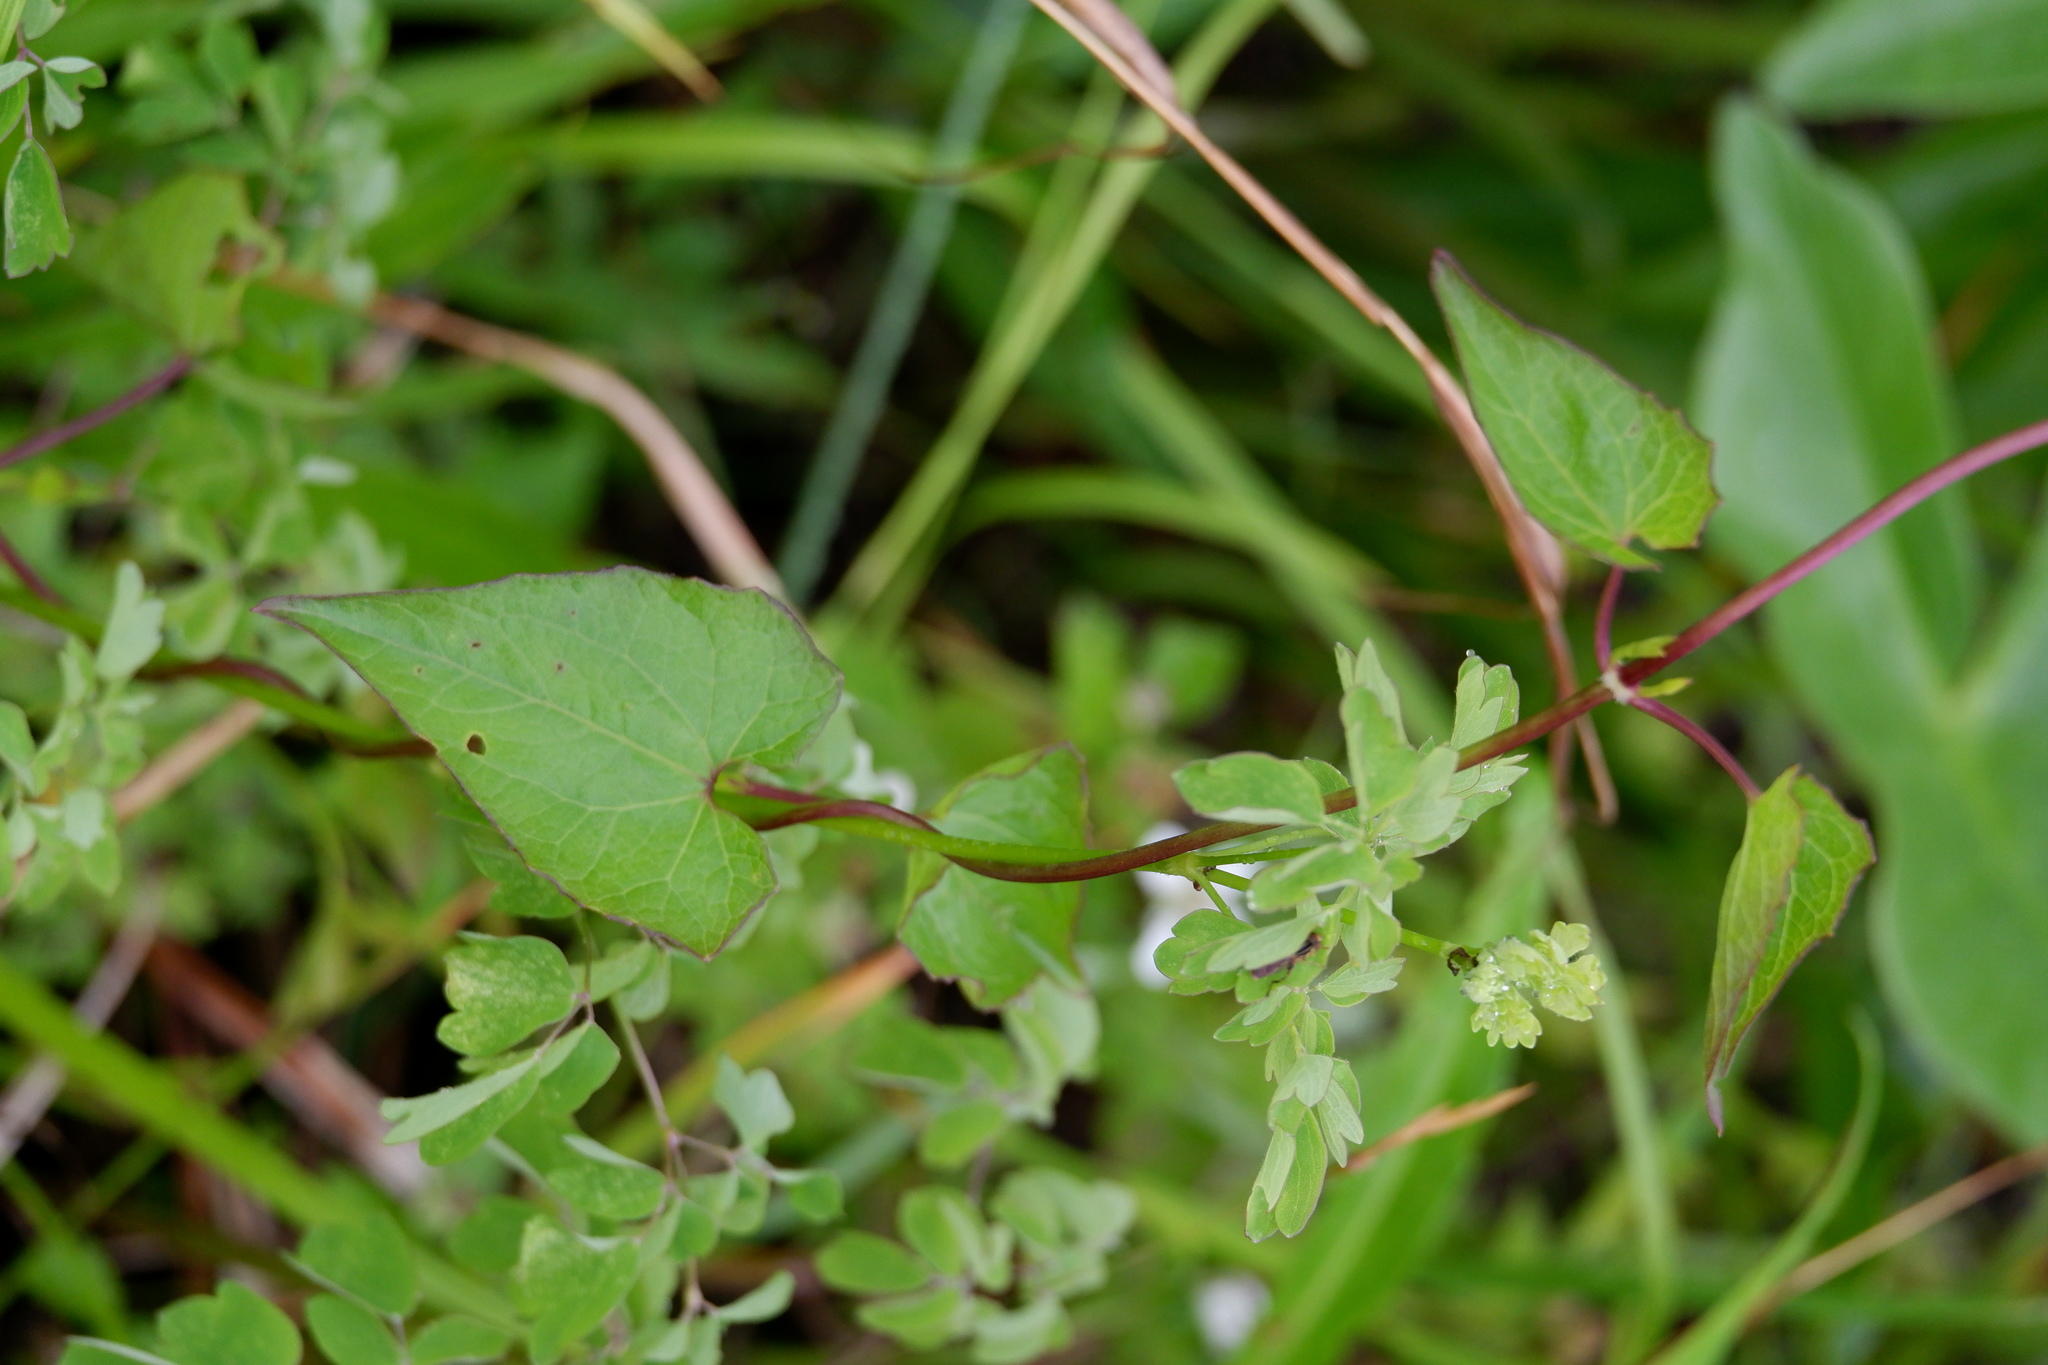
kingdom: Plantae
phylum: Tracheophyta
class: Magnoliopsida
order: Asterales
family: Asteraceae
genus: Mikania
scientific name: Mikania scandens
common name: Climbing hempvine
